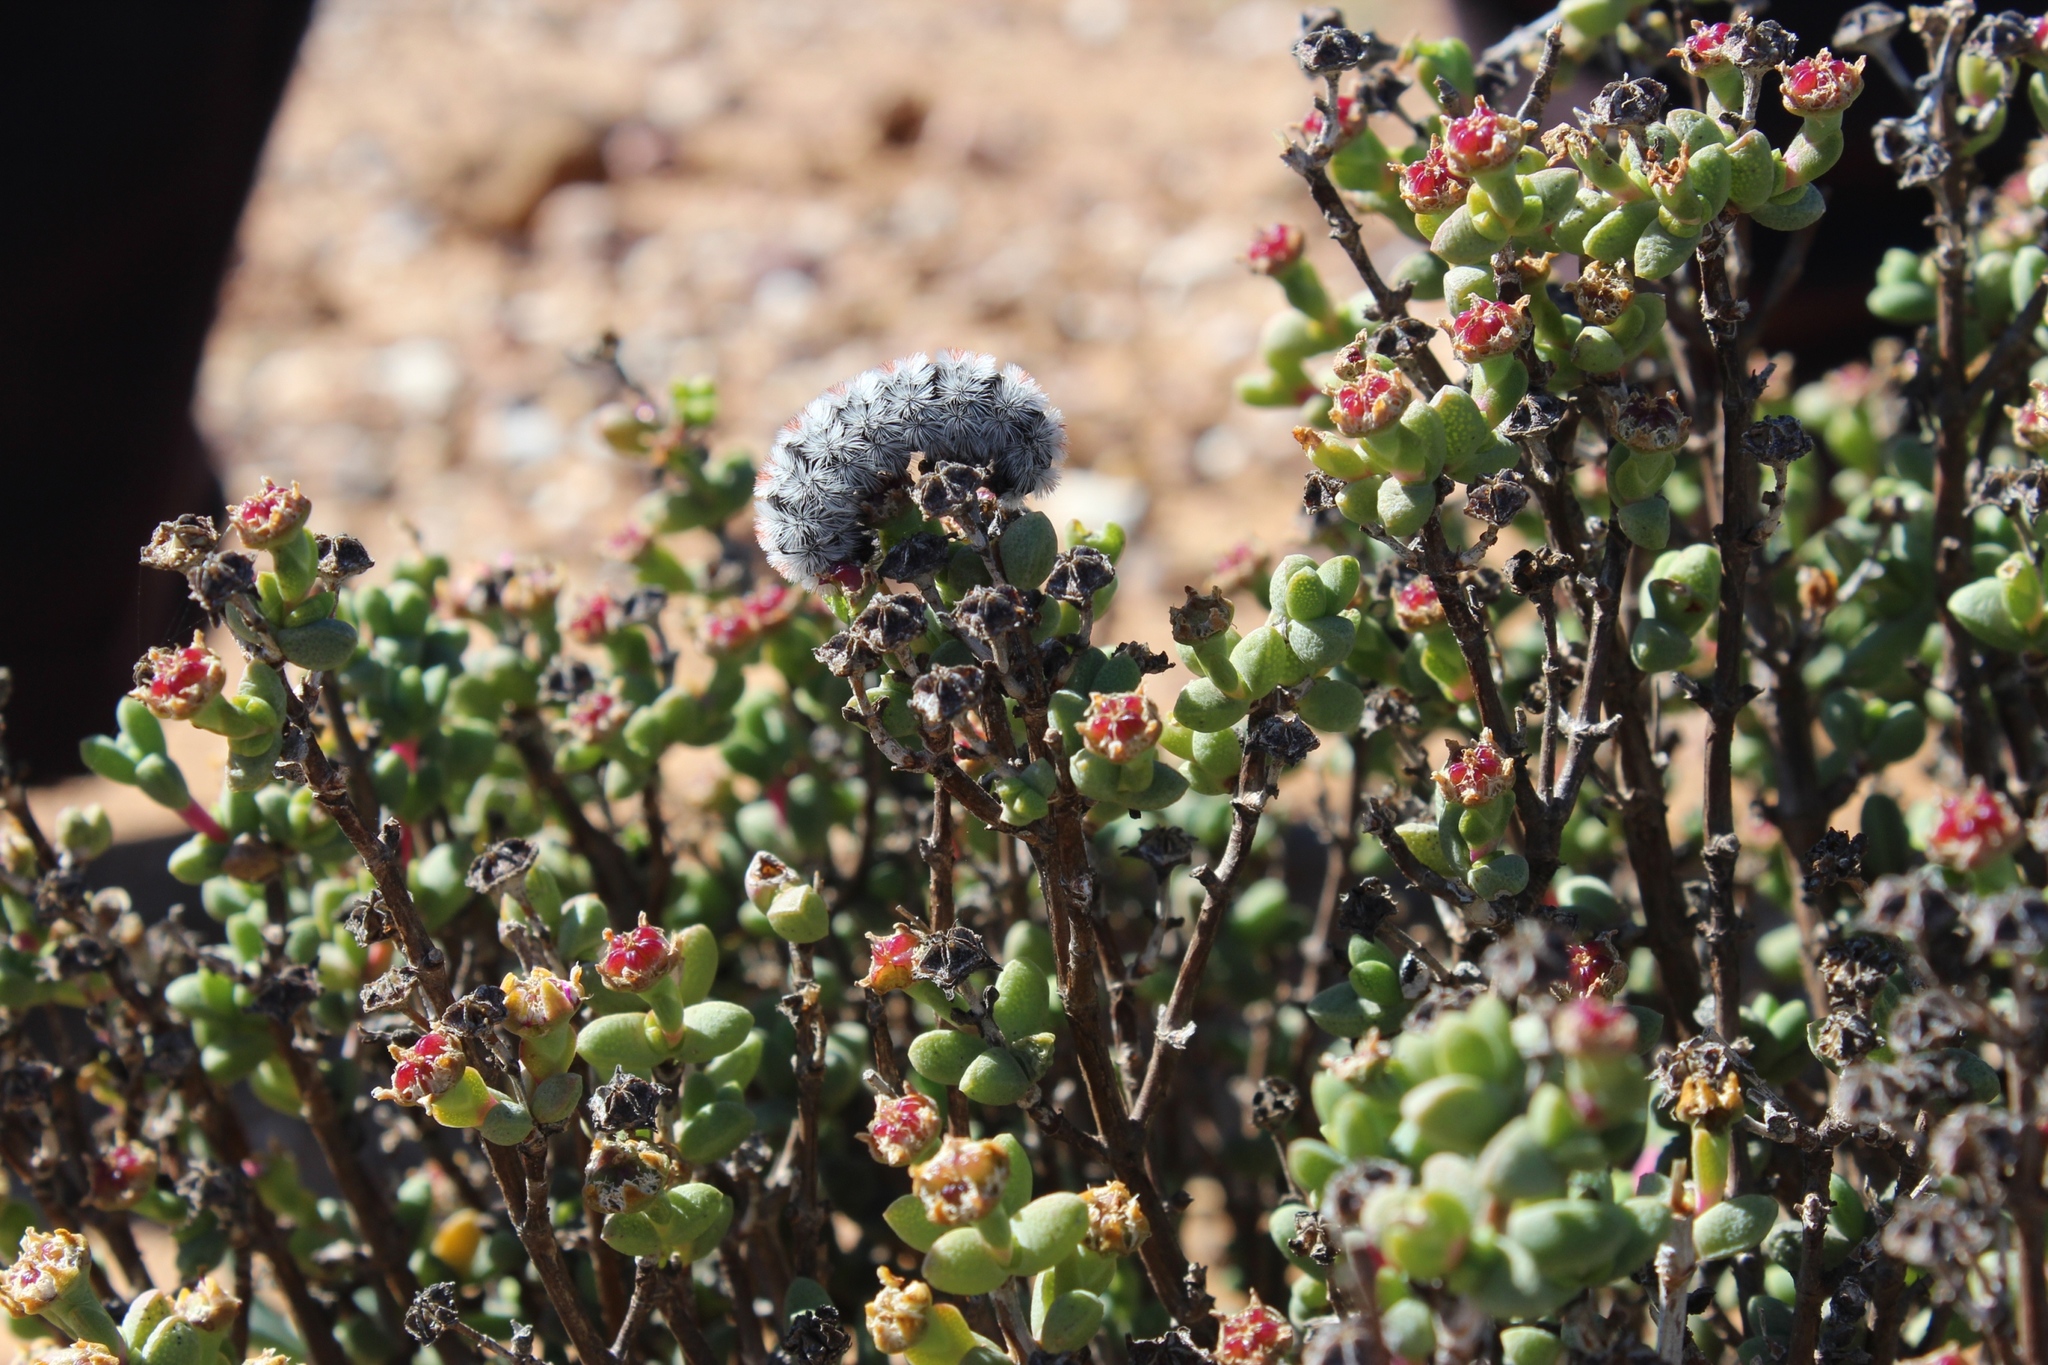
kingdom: Plantae
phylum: Tracheophyta
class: Magnoliopsida
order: Caryophyllales
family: Aizoaceae
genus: Ruschia
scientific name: Ruschia subsphaerica
